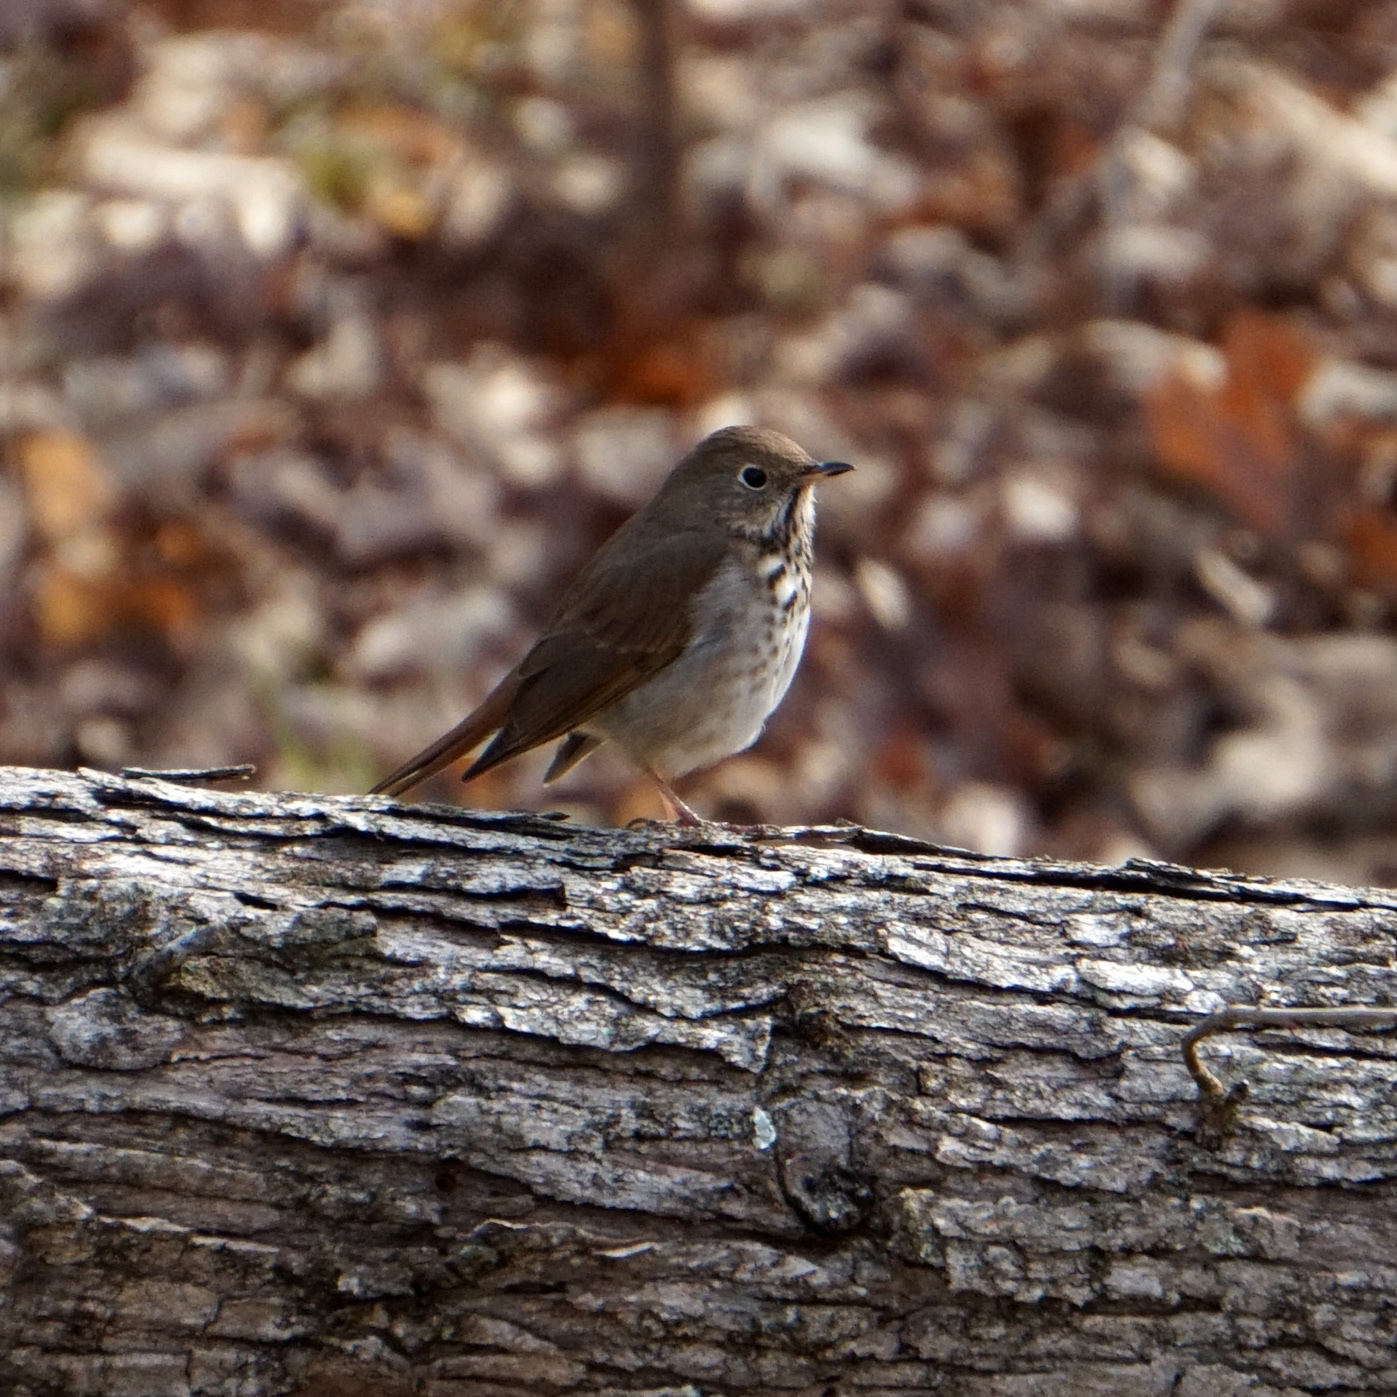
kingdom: Animalia
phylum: Chordata
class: Aves
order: Passeriformes
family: Turdidae
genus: Catharus
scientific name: Catharus guttatus
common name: Hermit thrush
